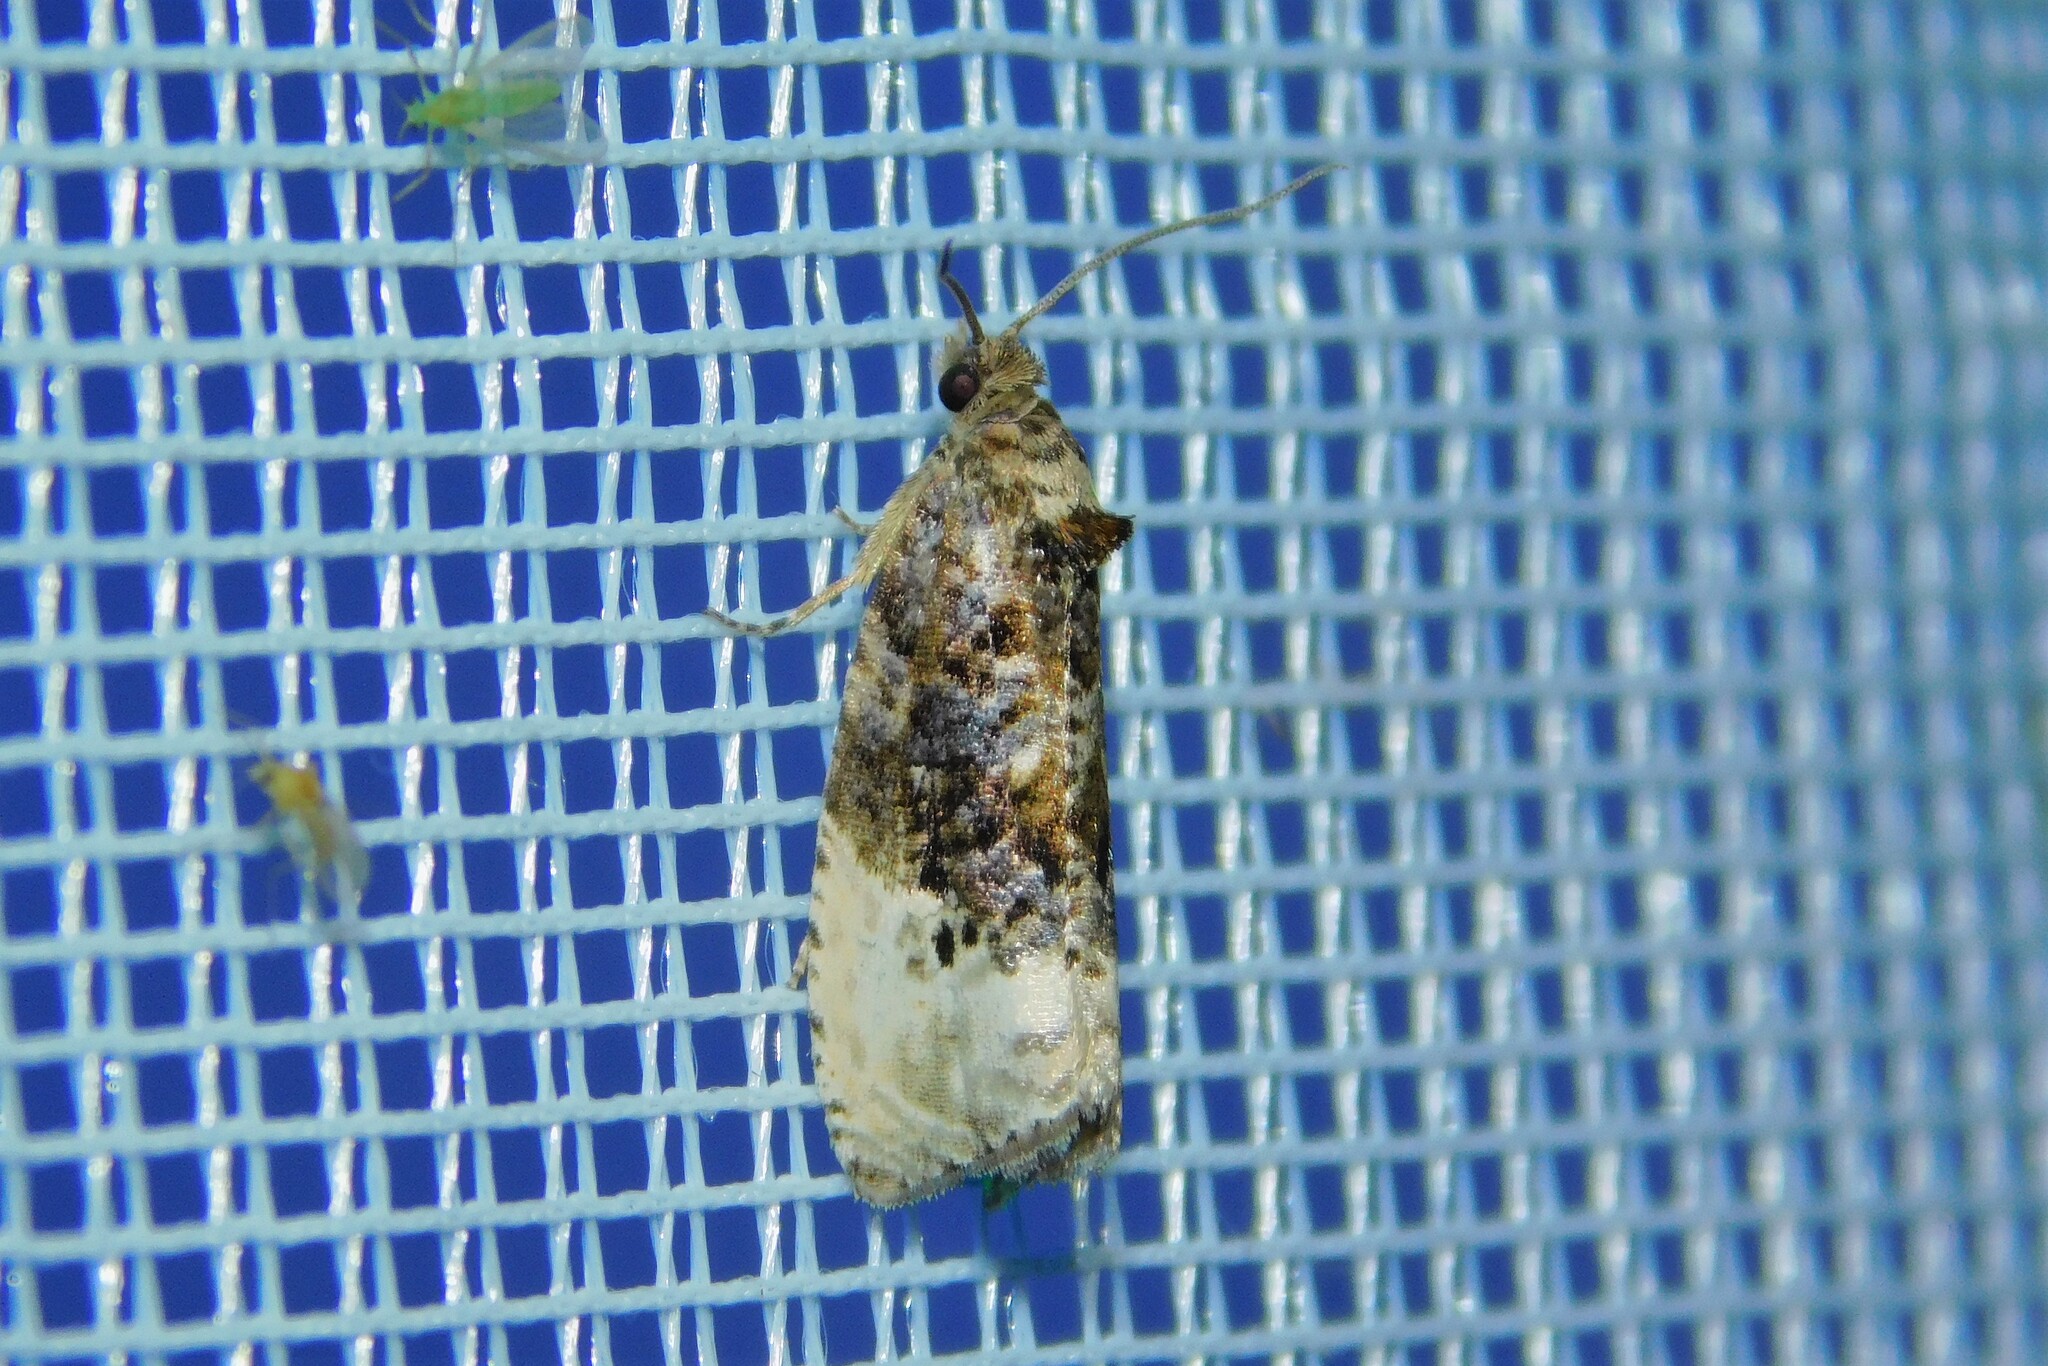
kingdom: Animalia
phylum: Arthropoda
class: Insecta
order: Lepidoptera
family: Tortricidae
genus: Hedya
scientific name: Hedya nubiferana
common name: Marbled orchard tortrix
